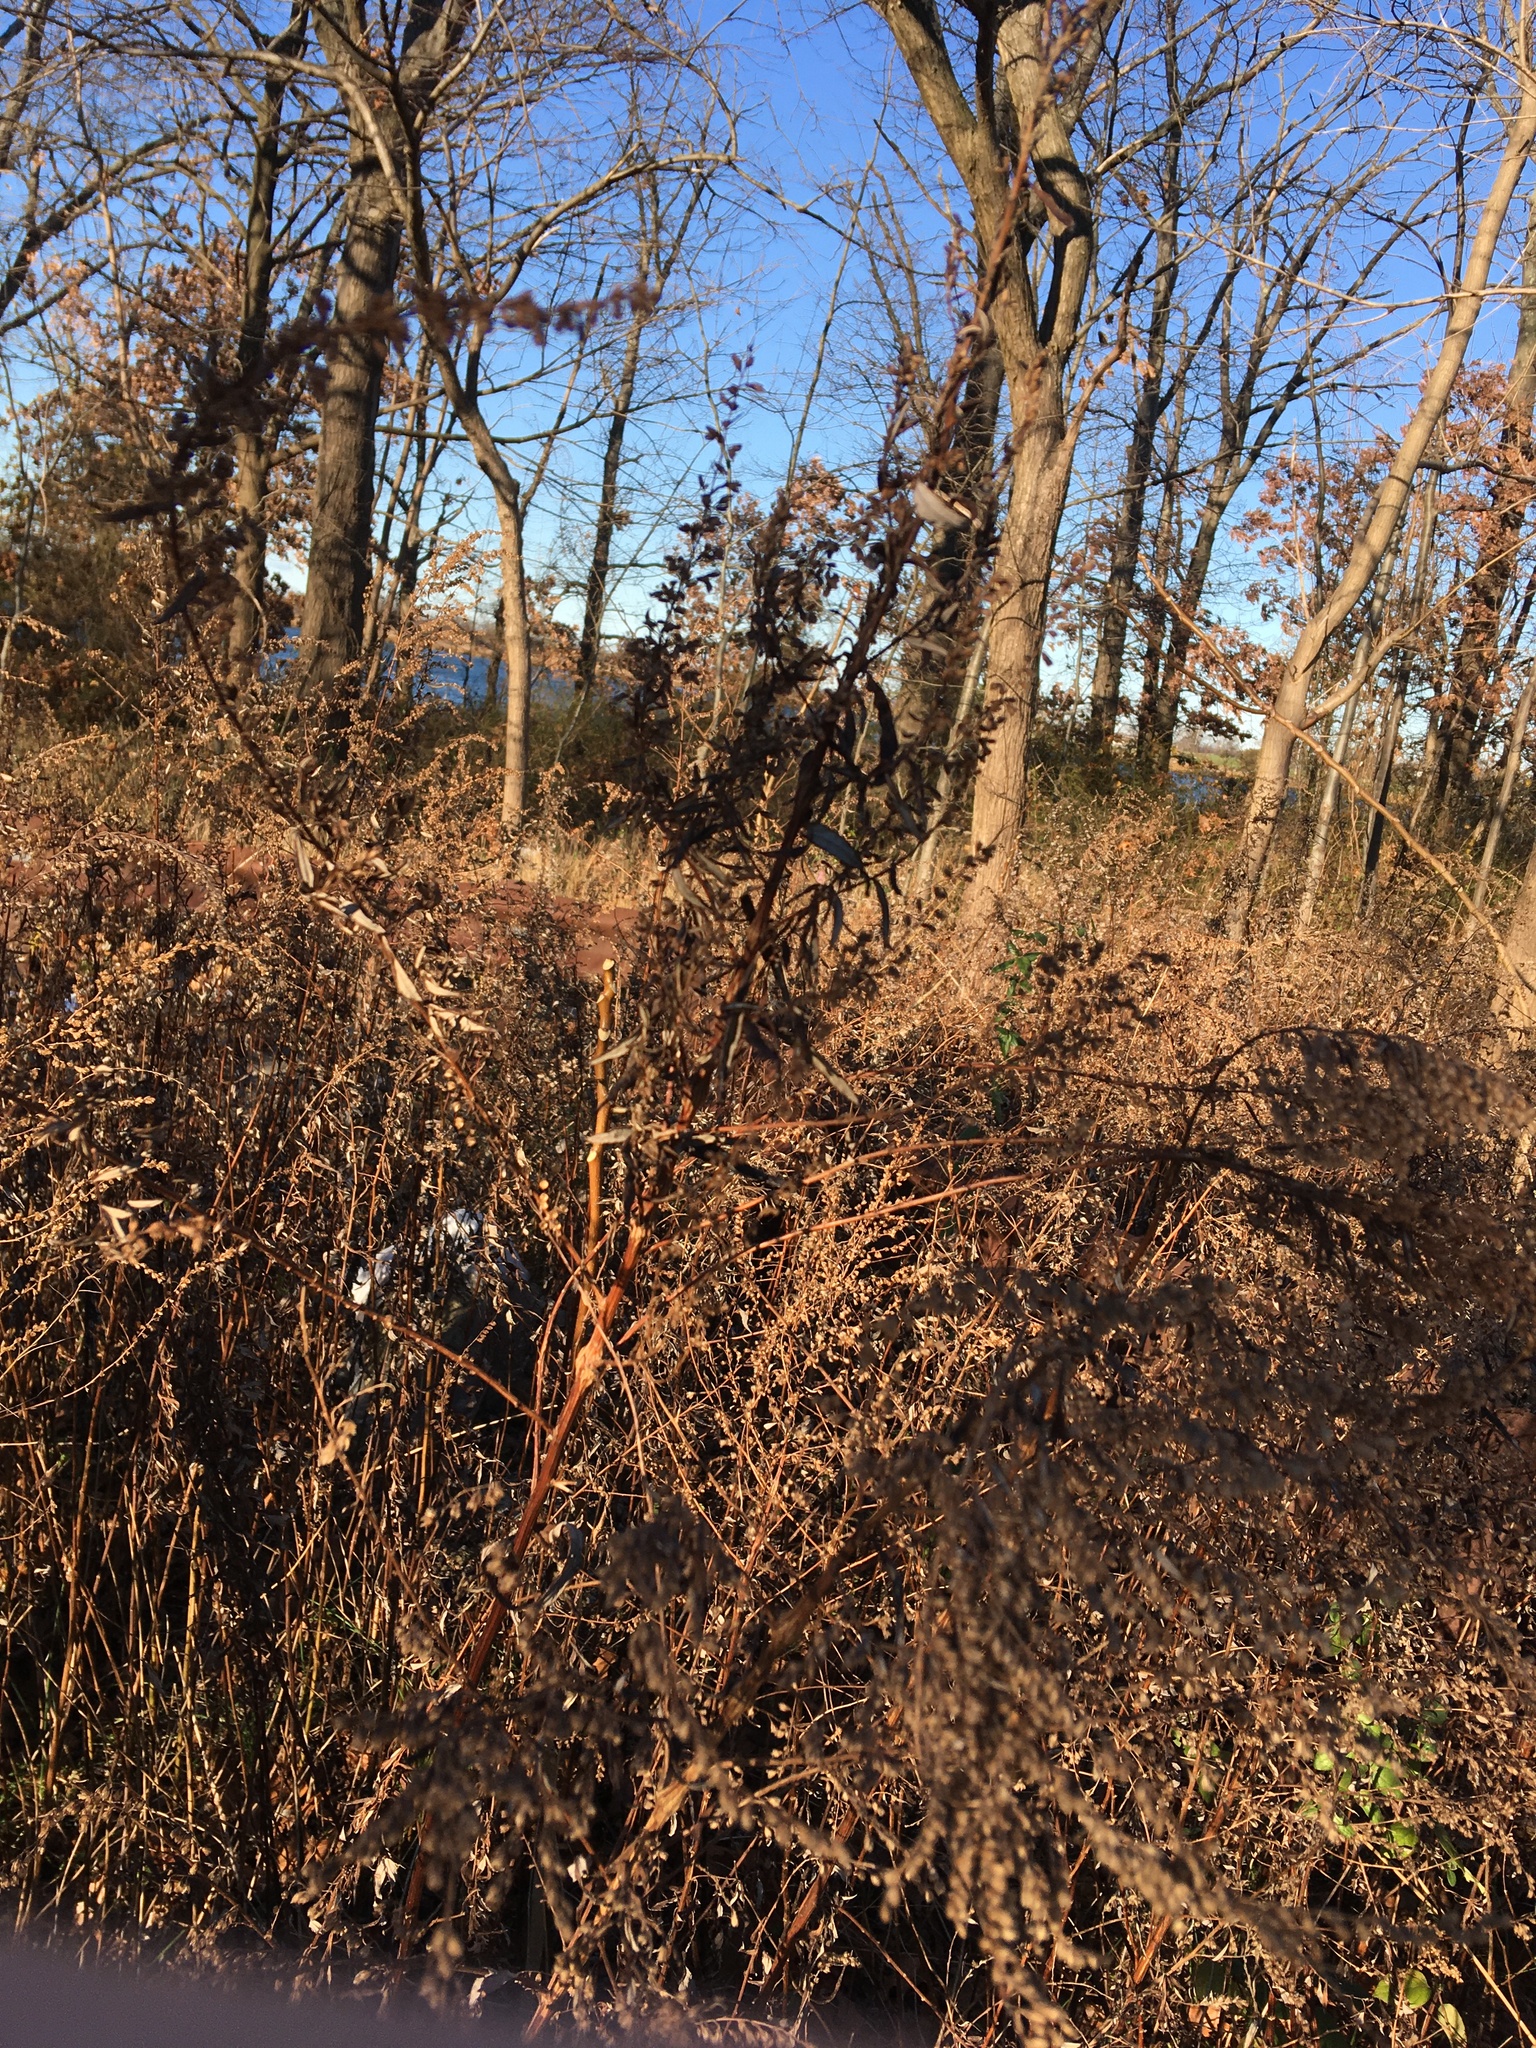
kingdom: Plantae
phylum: Tracheophyta
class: Magnoliopsida
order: Asterales
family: Asteraceae
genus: Artemisia
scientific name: Artemisia vulgaris
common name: Mugwort
